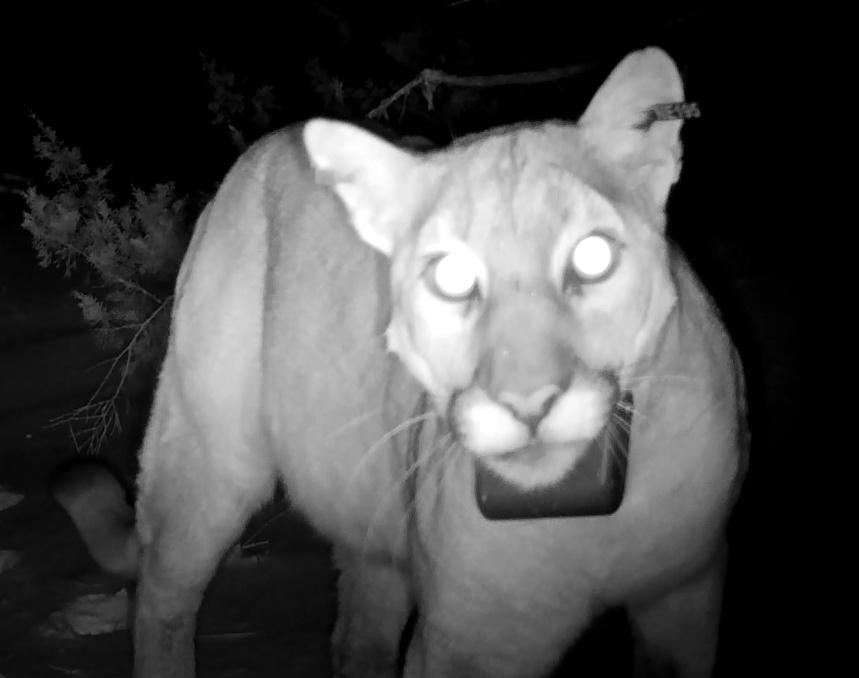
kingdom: Animalia
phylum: Chordata
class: Mammalia
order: Carnivora
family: Felidae
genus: Puma
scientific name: Puma concolor
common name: Puma
